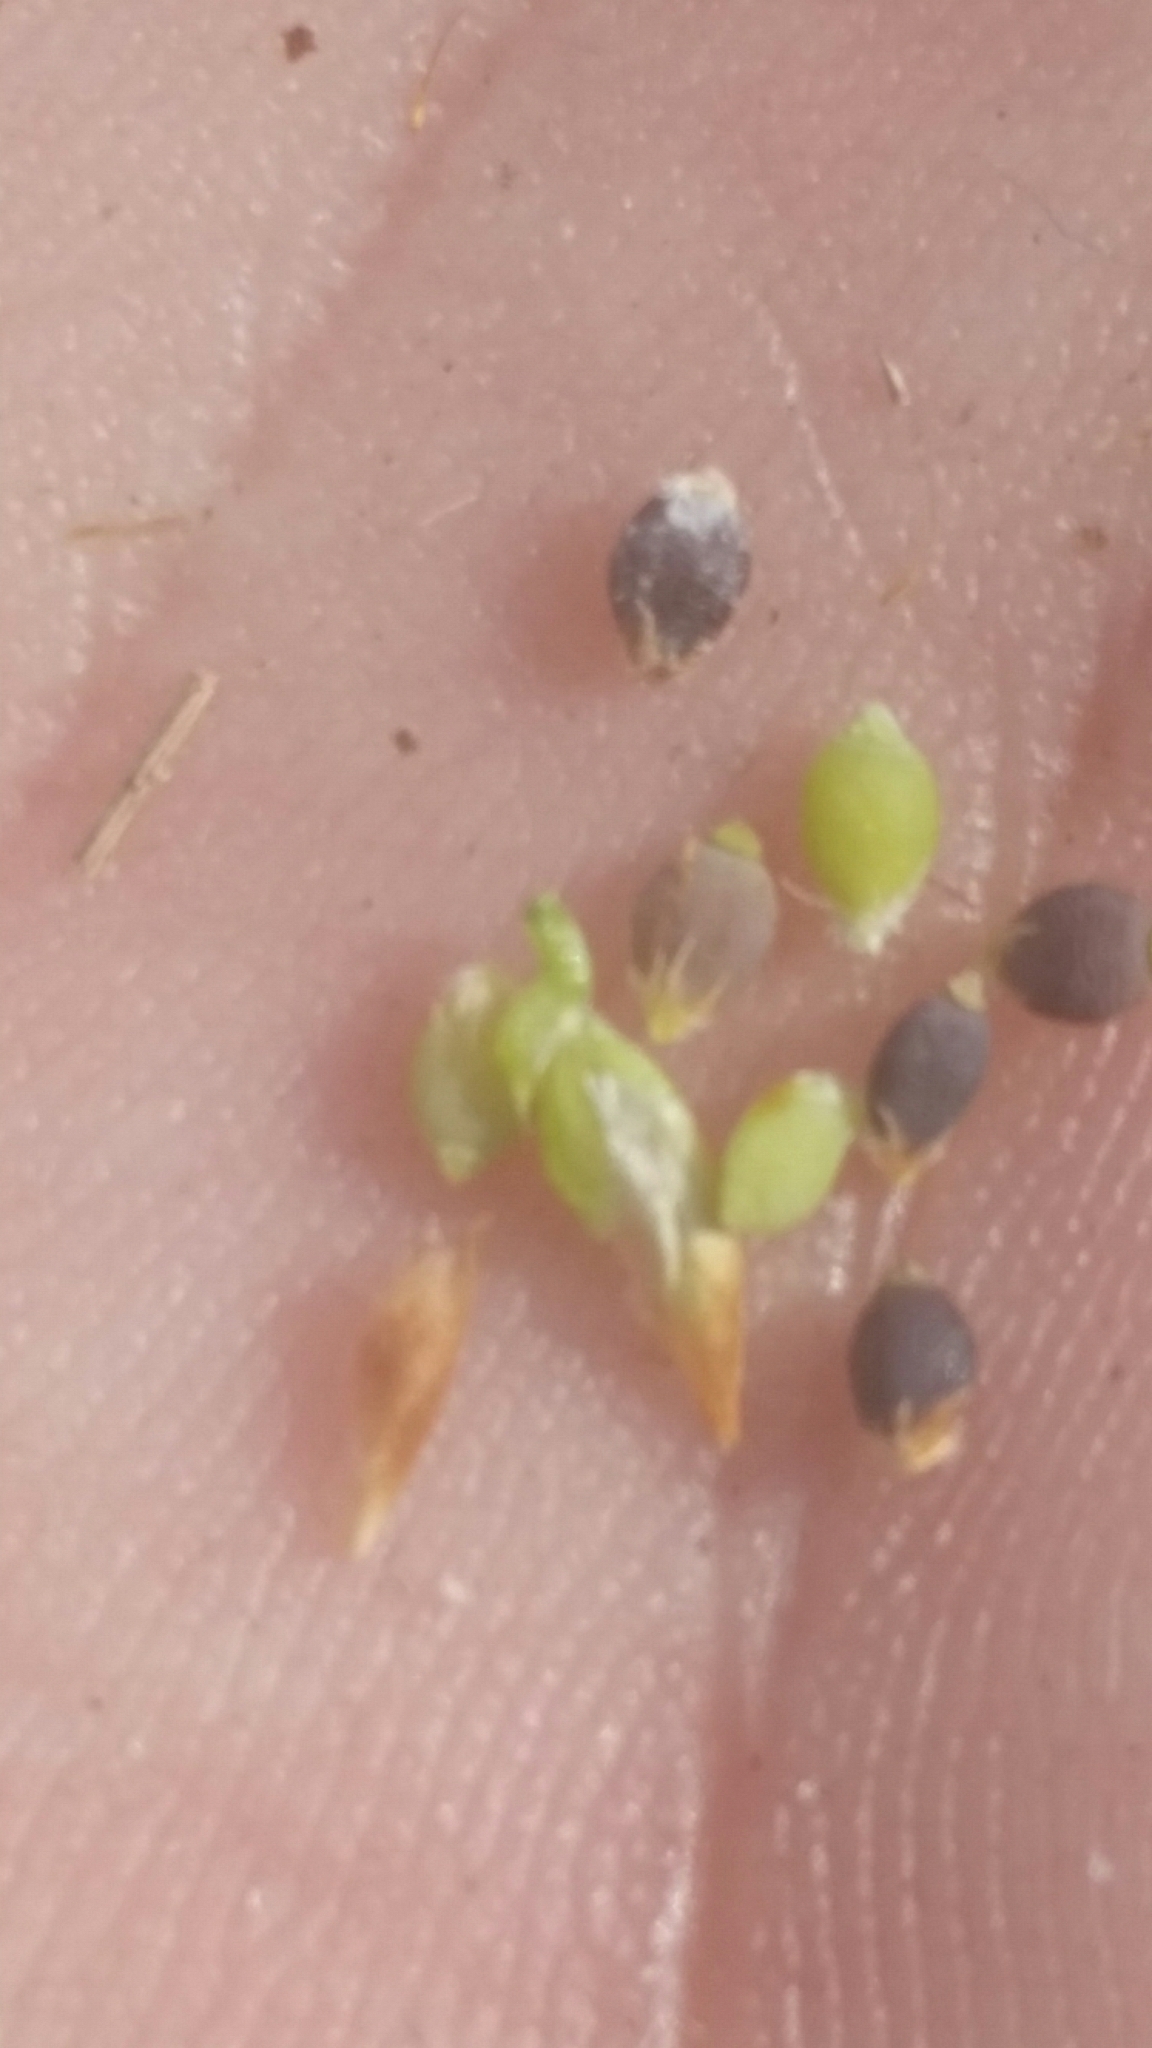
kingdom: Plantae
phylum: Tracheophyta
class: Liliopsida
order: Poales
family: Cyperaceae
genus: Rhynchospora
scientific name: Rhynchospora galeana
